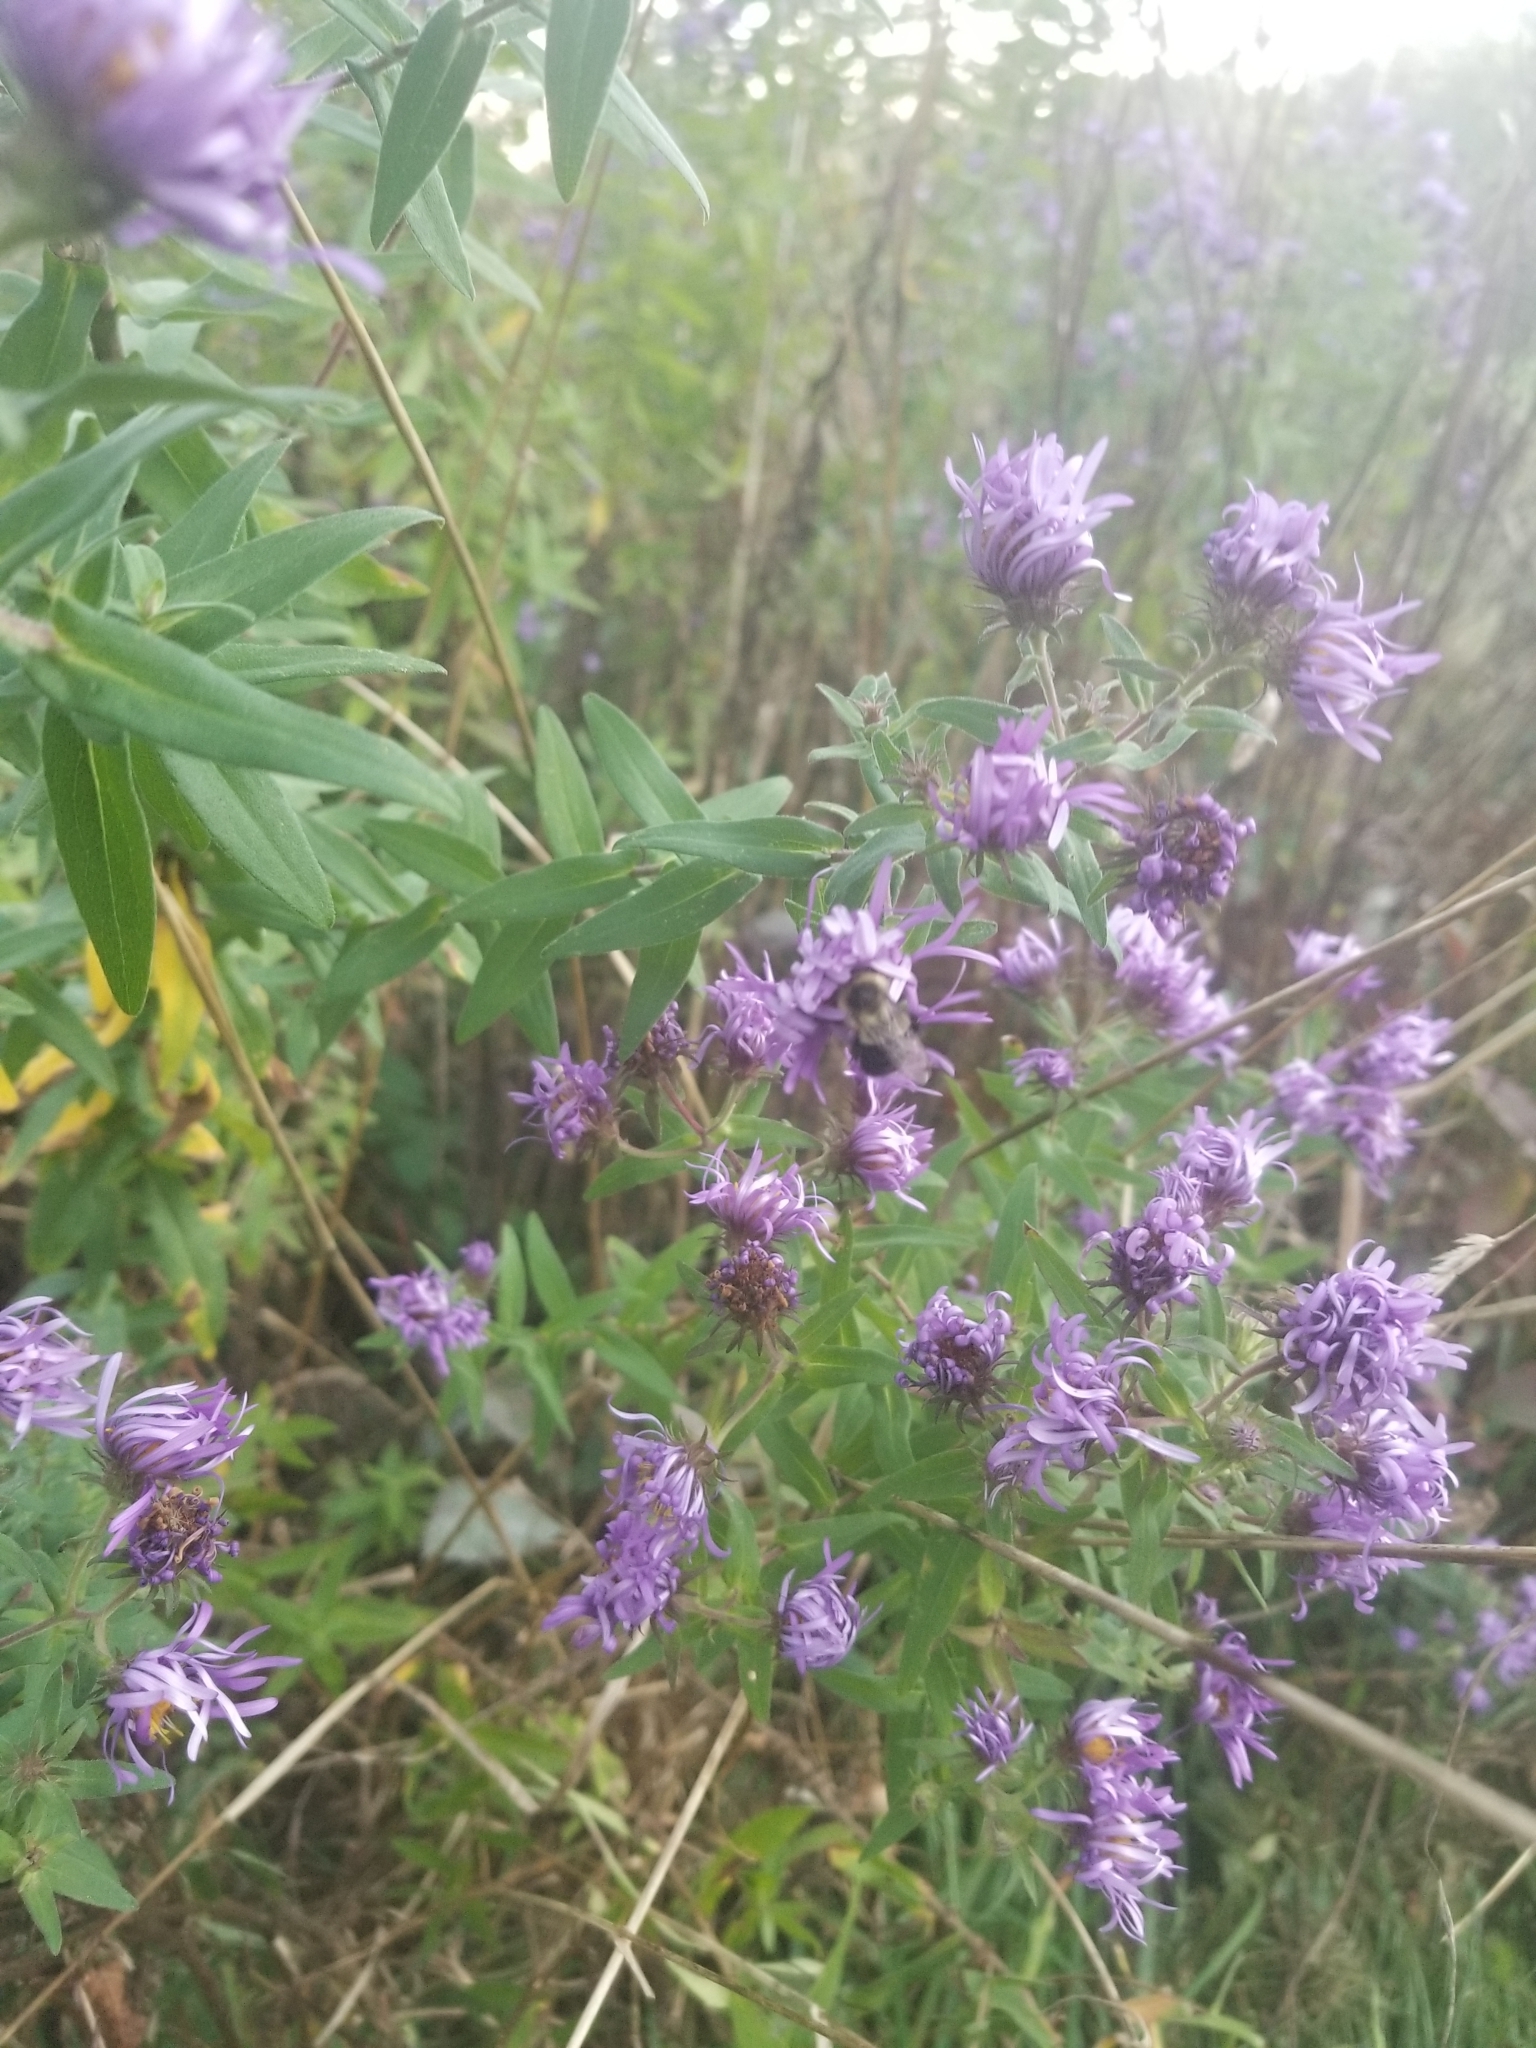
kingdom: Animalia
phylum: Arthropoda
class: Insecta
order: Hymenoptera
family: Apidae
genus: Bombus
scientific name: Bombus impatiens
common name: Common eastern bumble bee
